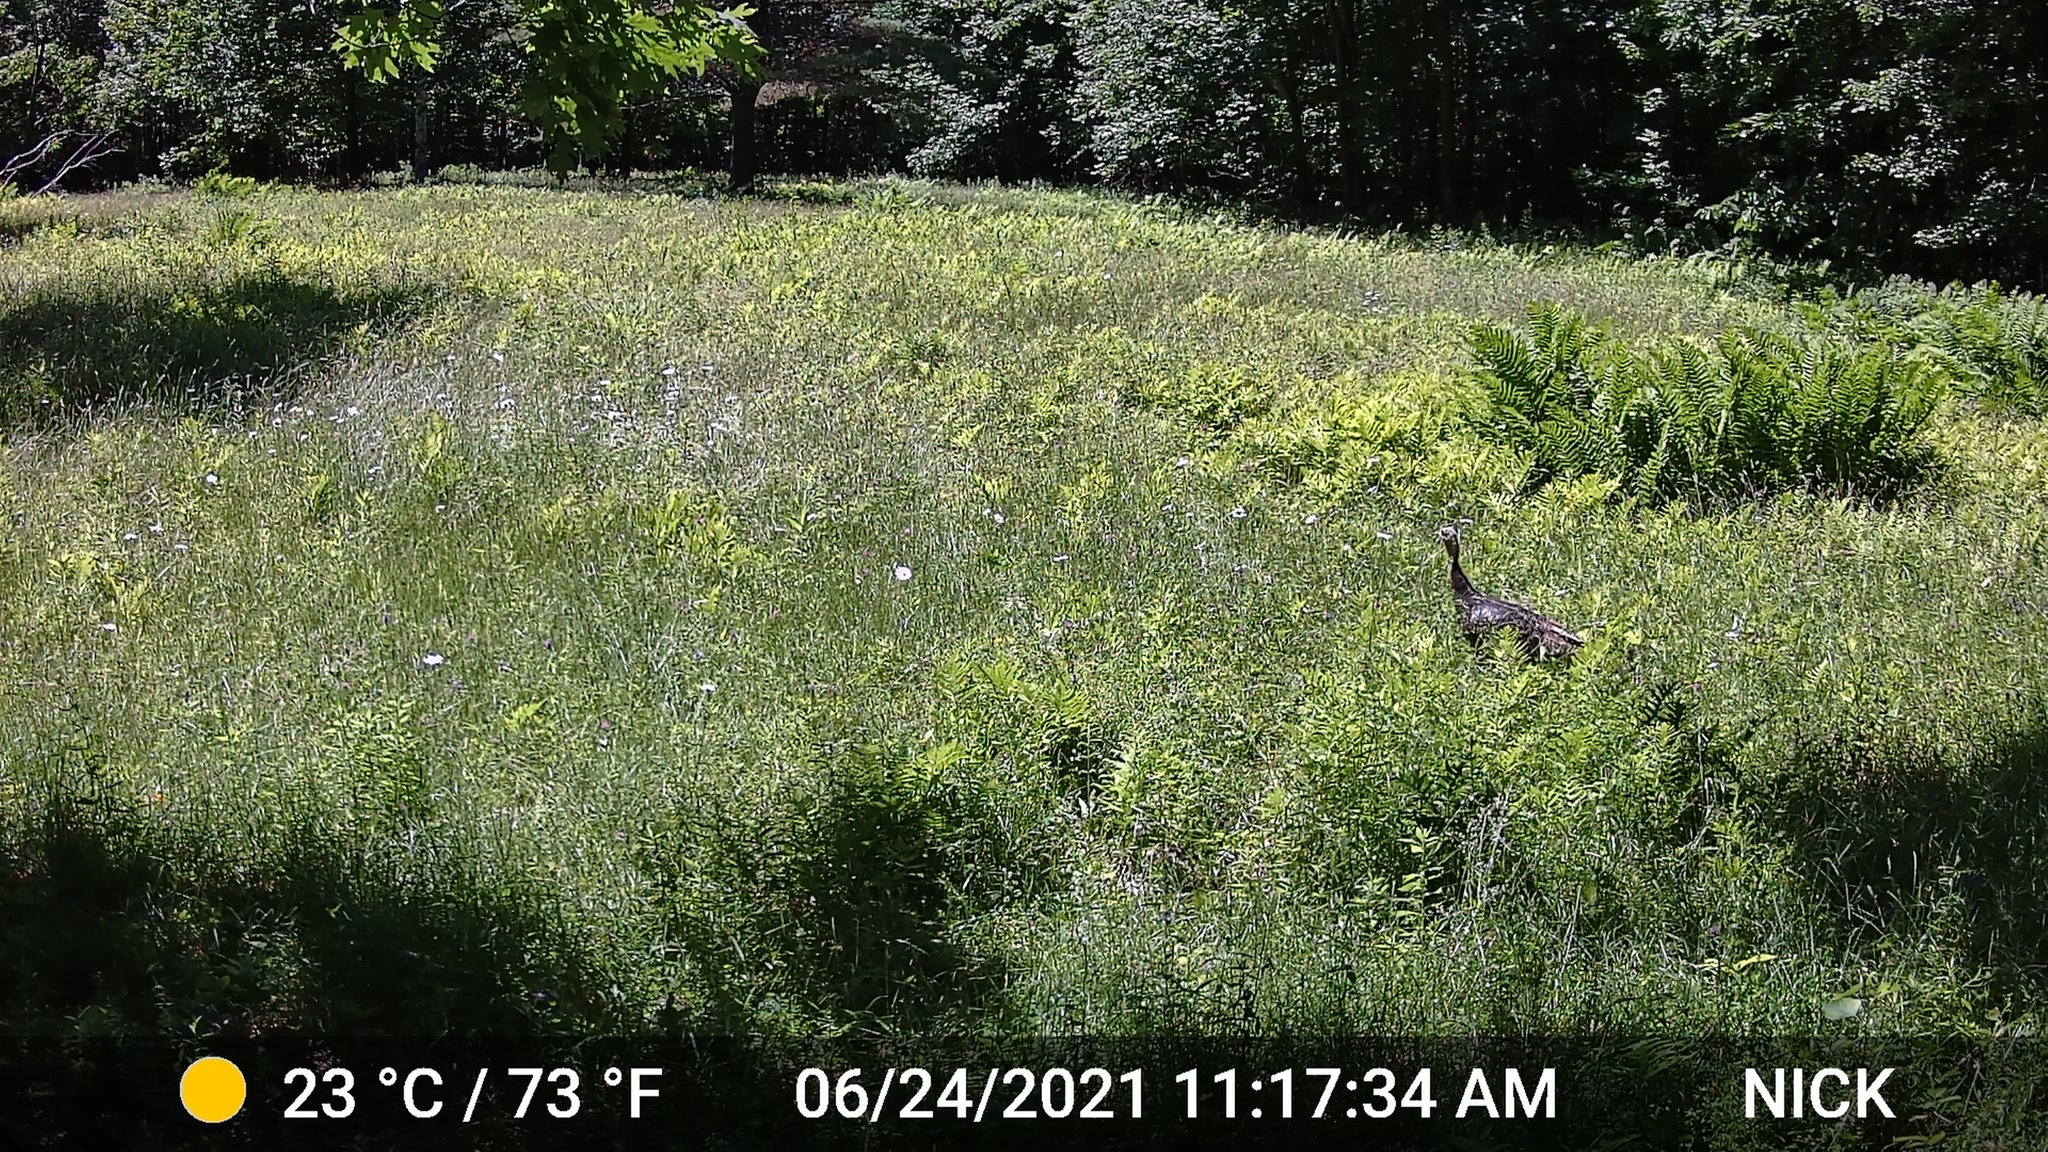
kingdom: Animalia
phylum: Chordata
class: Aves
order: Galliformes
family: Phasianidae
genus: Meleagris
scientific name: Meleagris gallopavo
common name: Wild turkey
